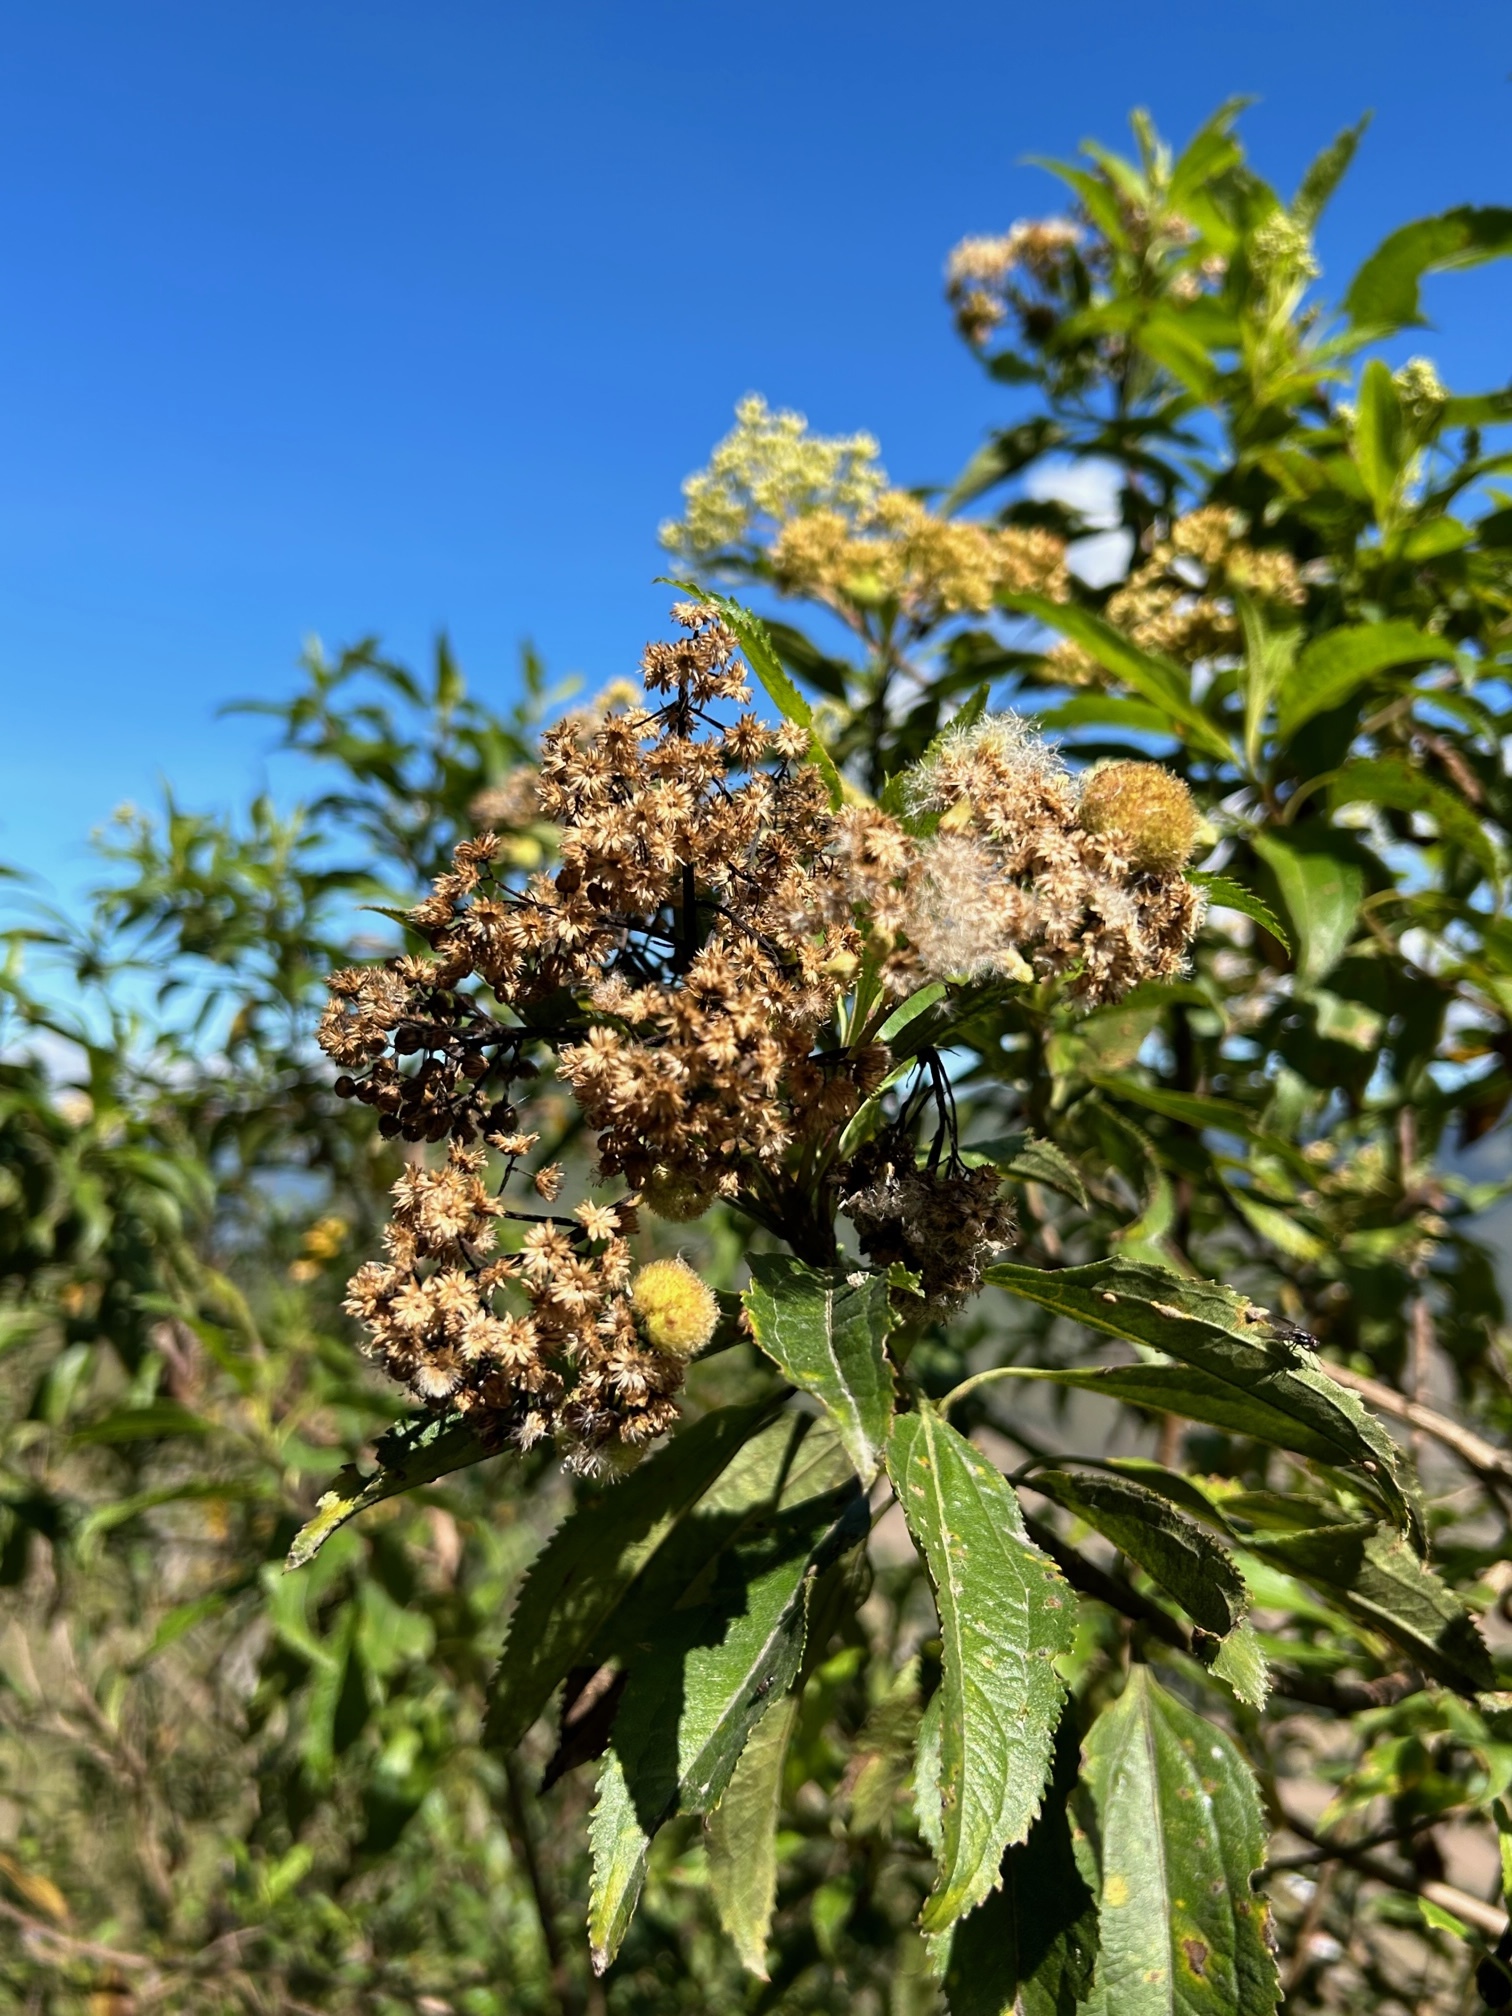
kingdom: Plantae
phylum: Tracheophyta
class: Magnoliopsida
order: Asterales
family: Asteraceae
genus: Baccharis
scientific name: Baccharis latifolia
